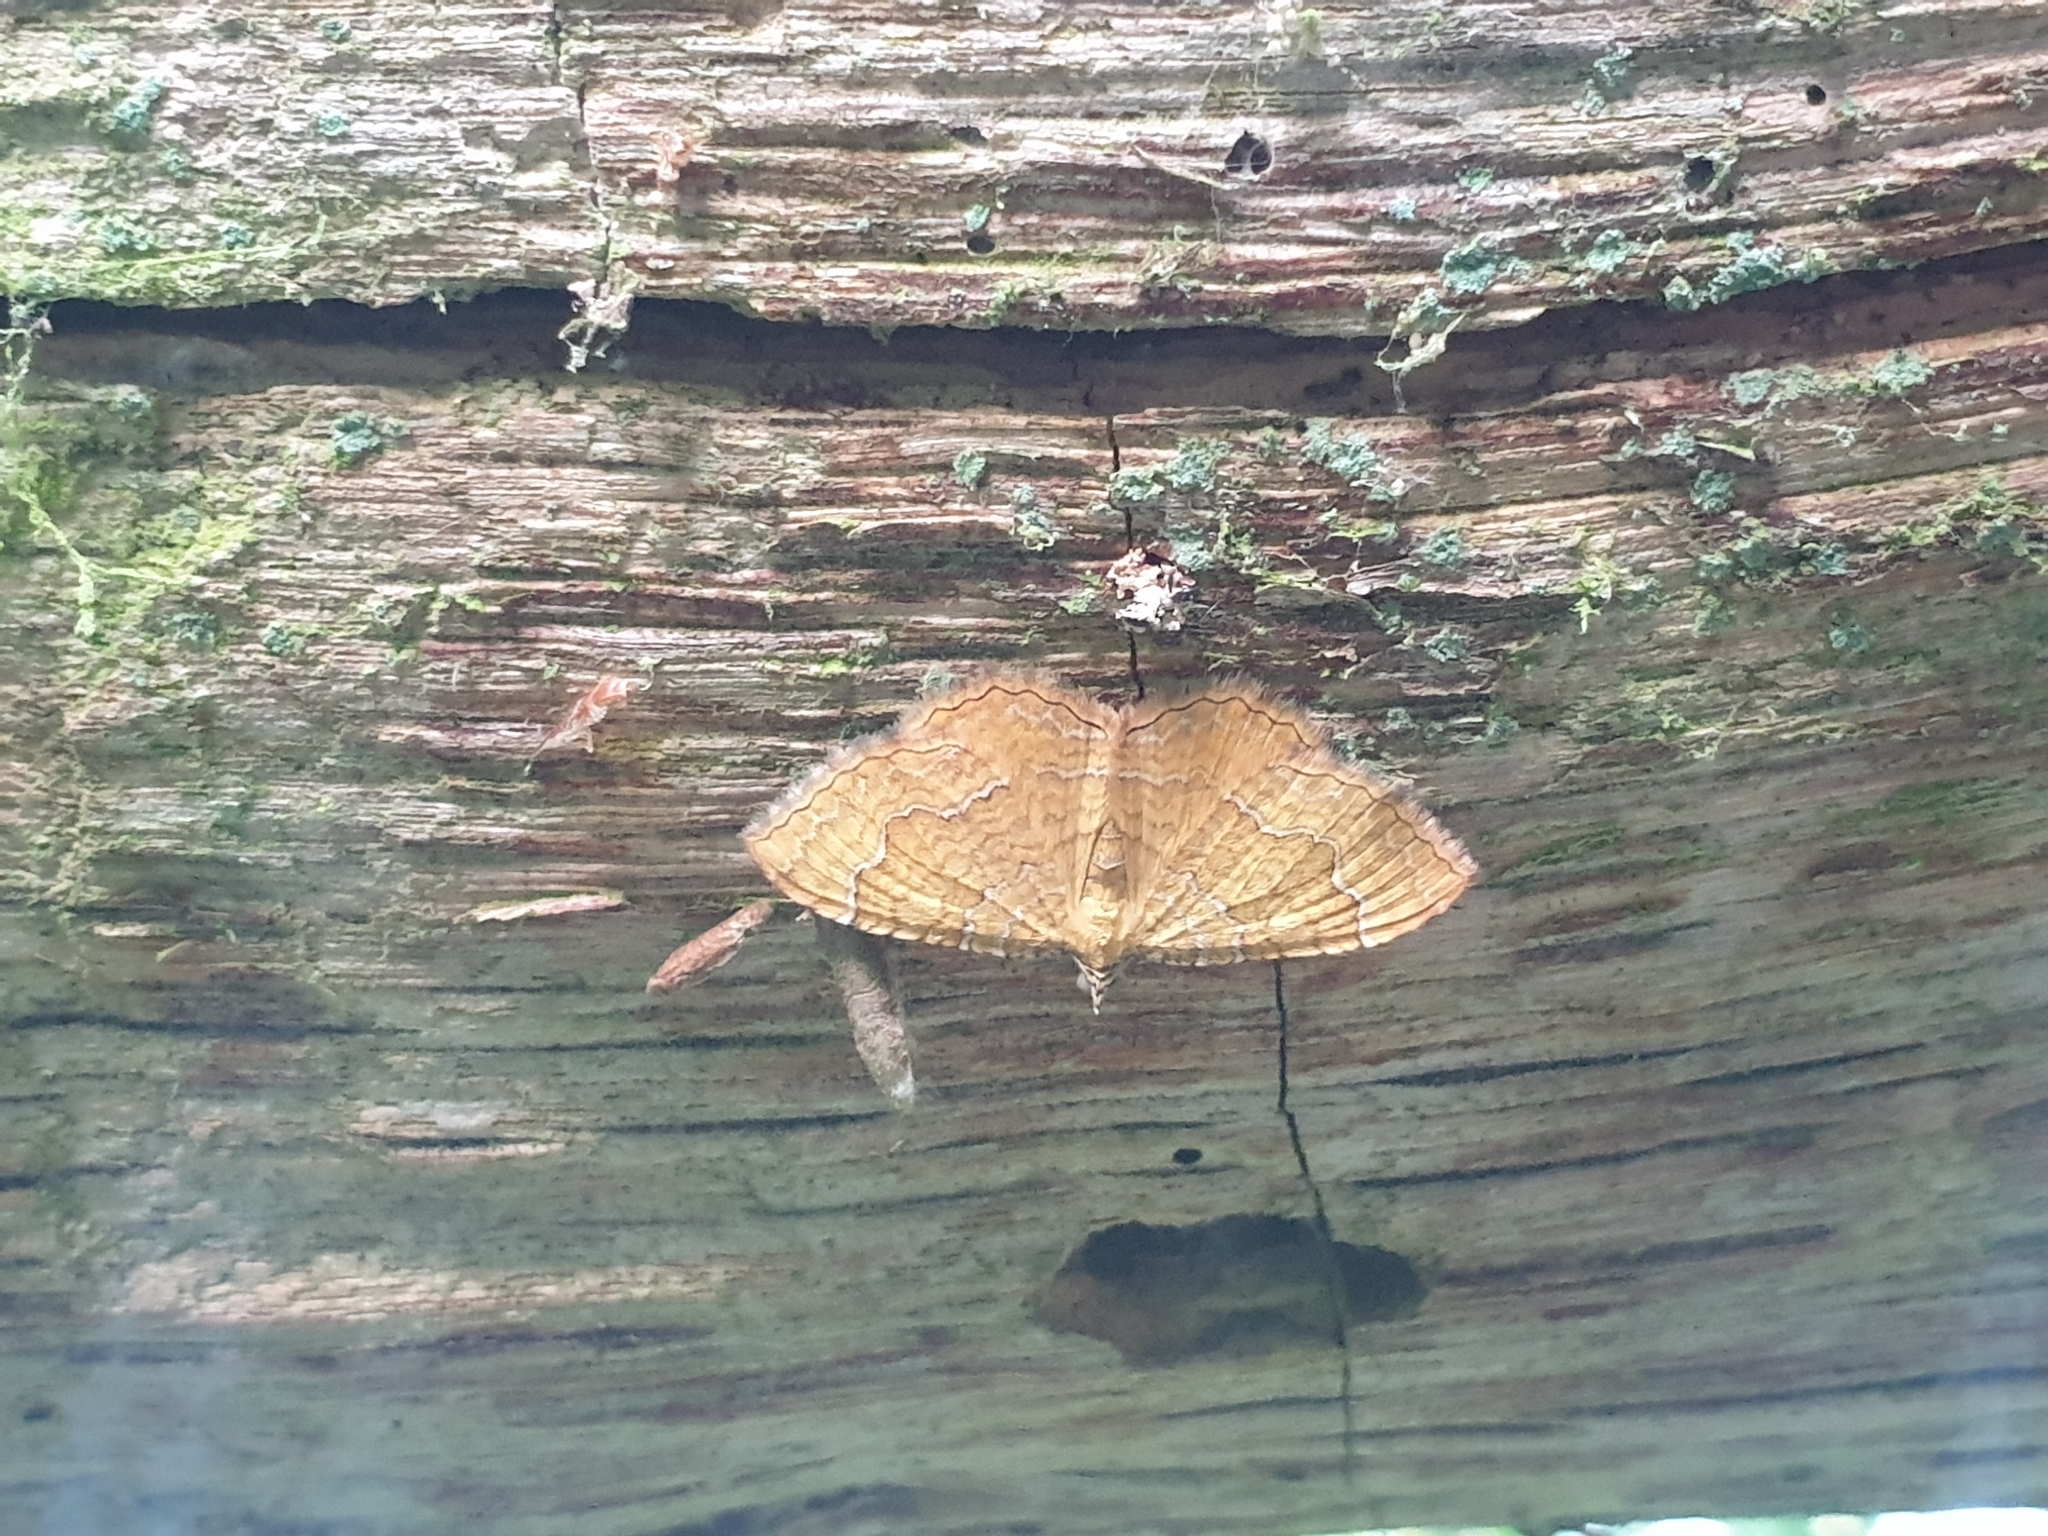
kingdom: Animalia
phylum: Arthropoda
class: Insecta
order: Lepidoptera
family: Geometridae
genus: Camptogramma
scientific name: Camptogramma bilineata
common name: Yellow shell
